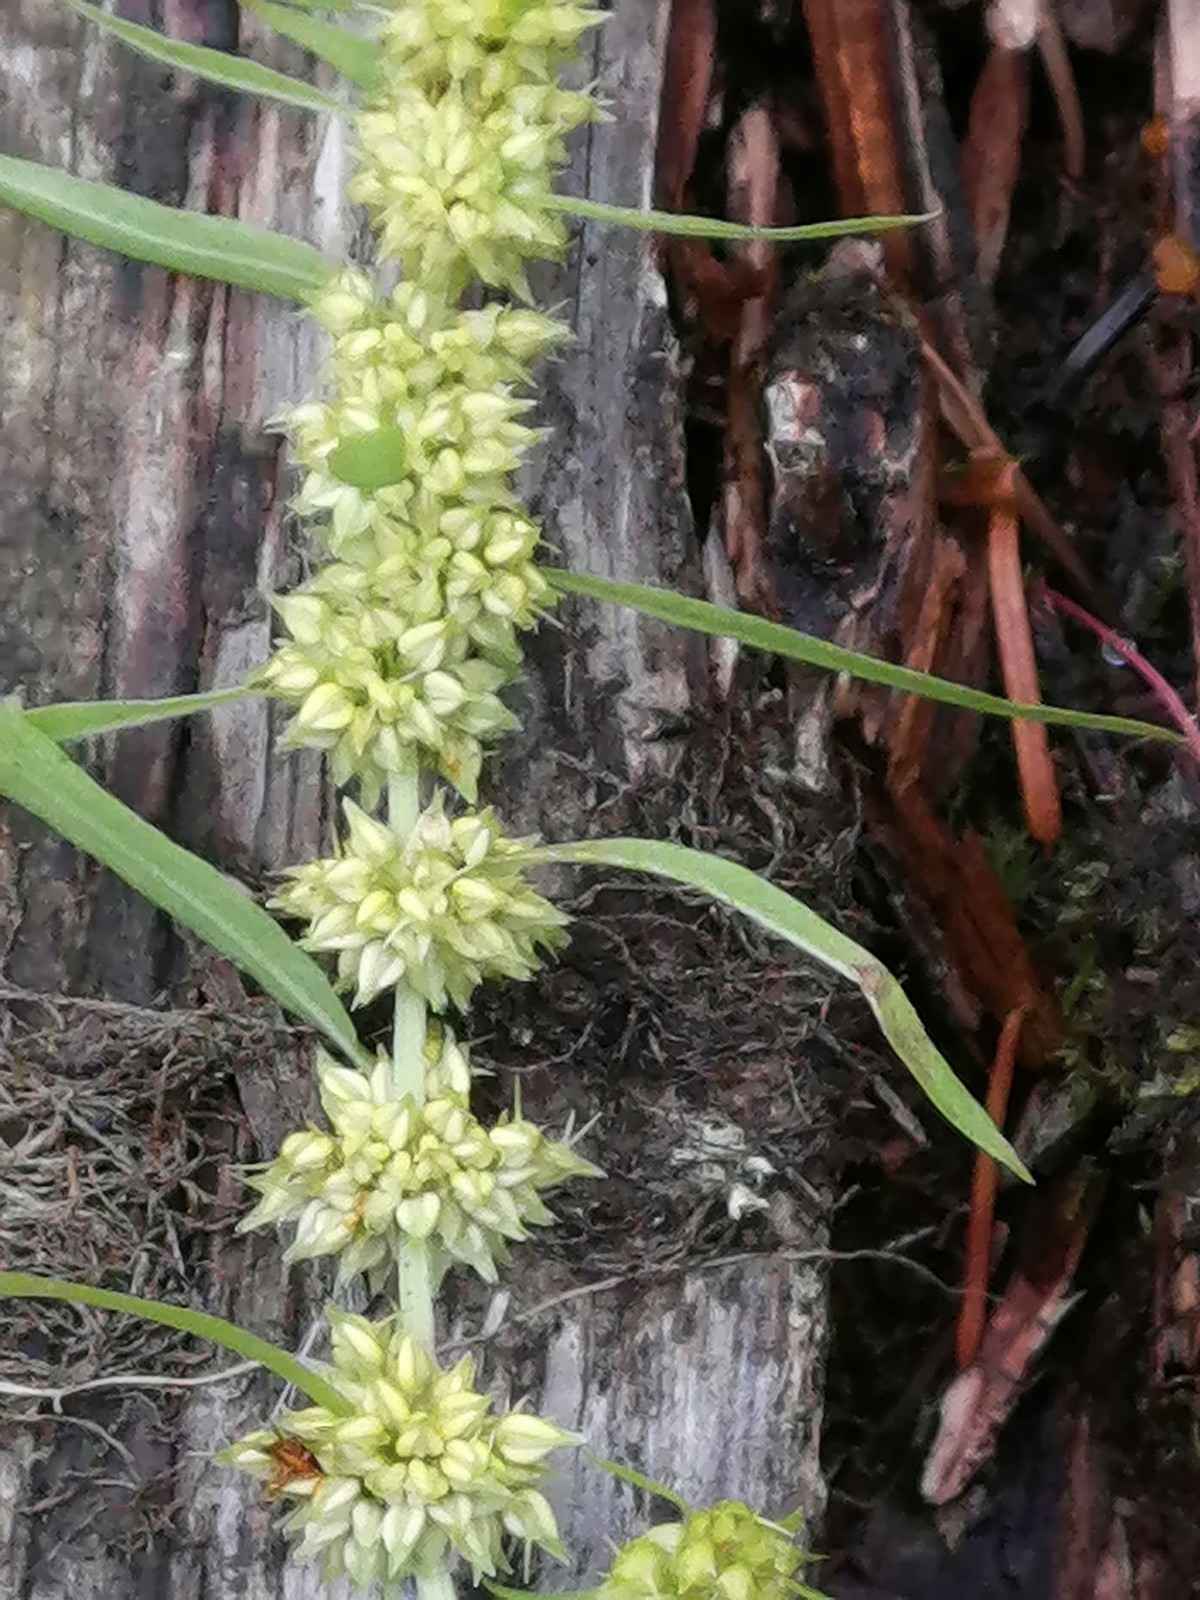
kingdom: Plantae
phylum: Tracheophyta
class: Magnoliopsida
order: Caryophyllales
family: Polygonaceae
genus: Rumex
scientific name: Rumex maritimus
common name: Golden dock
